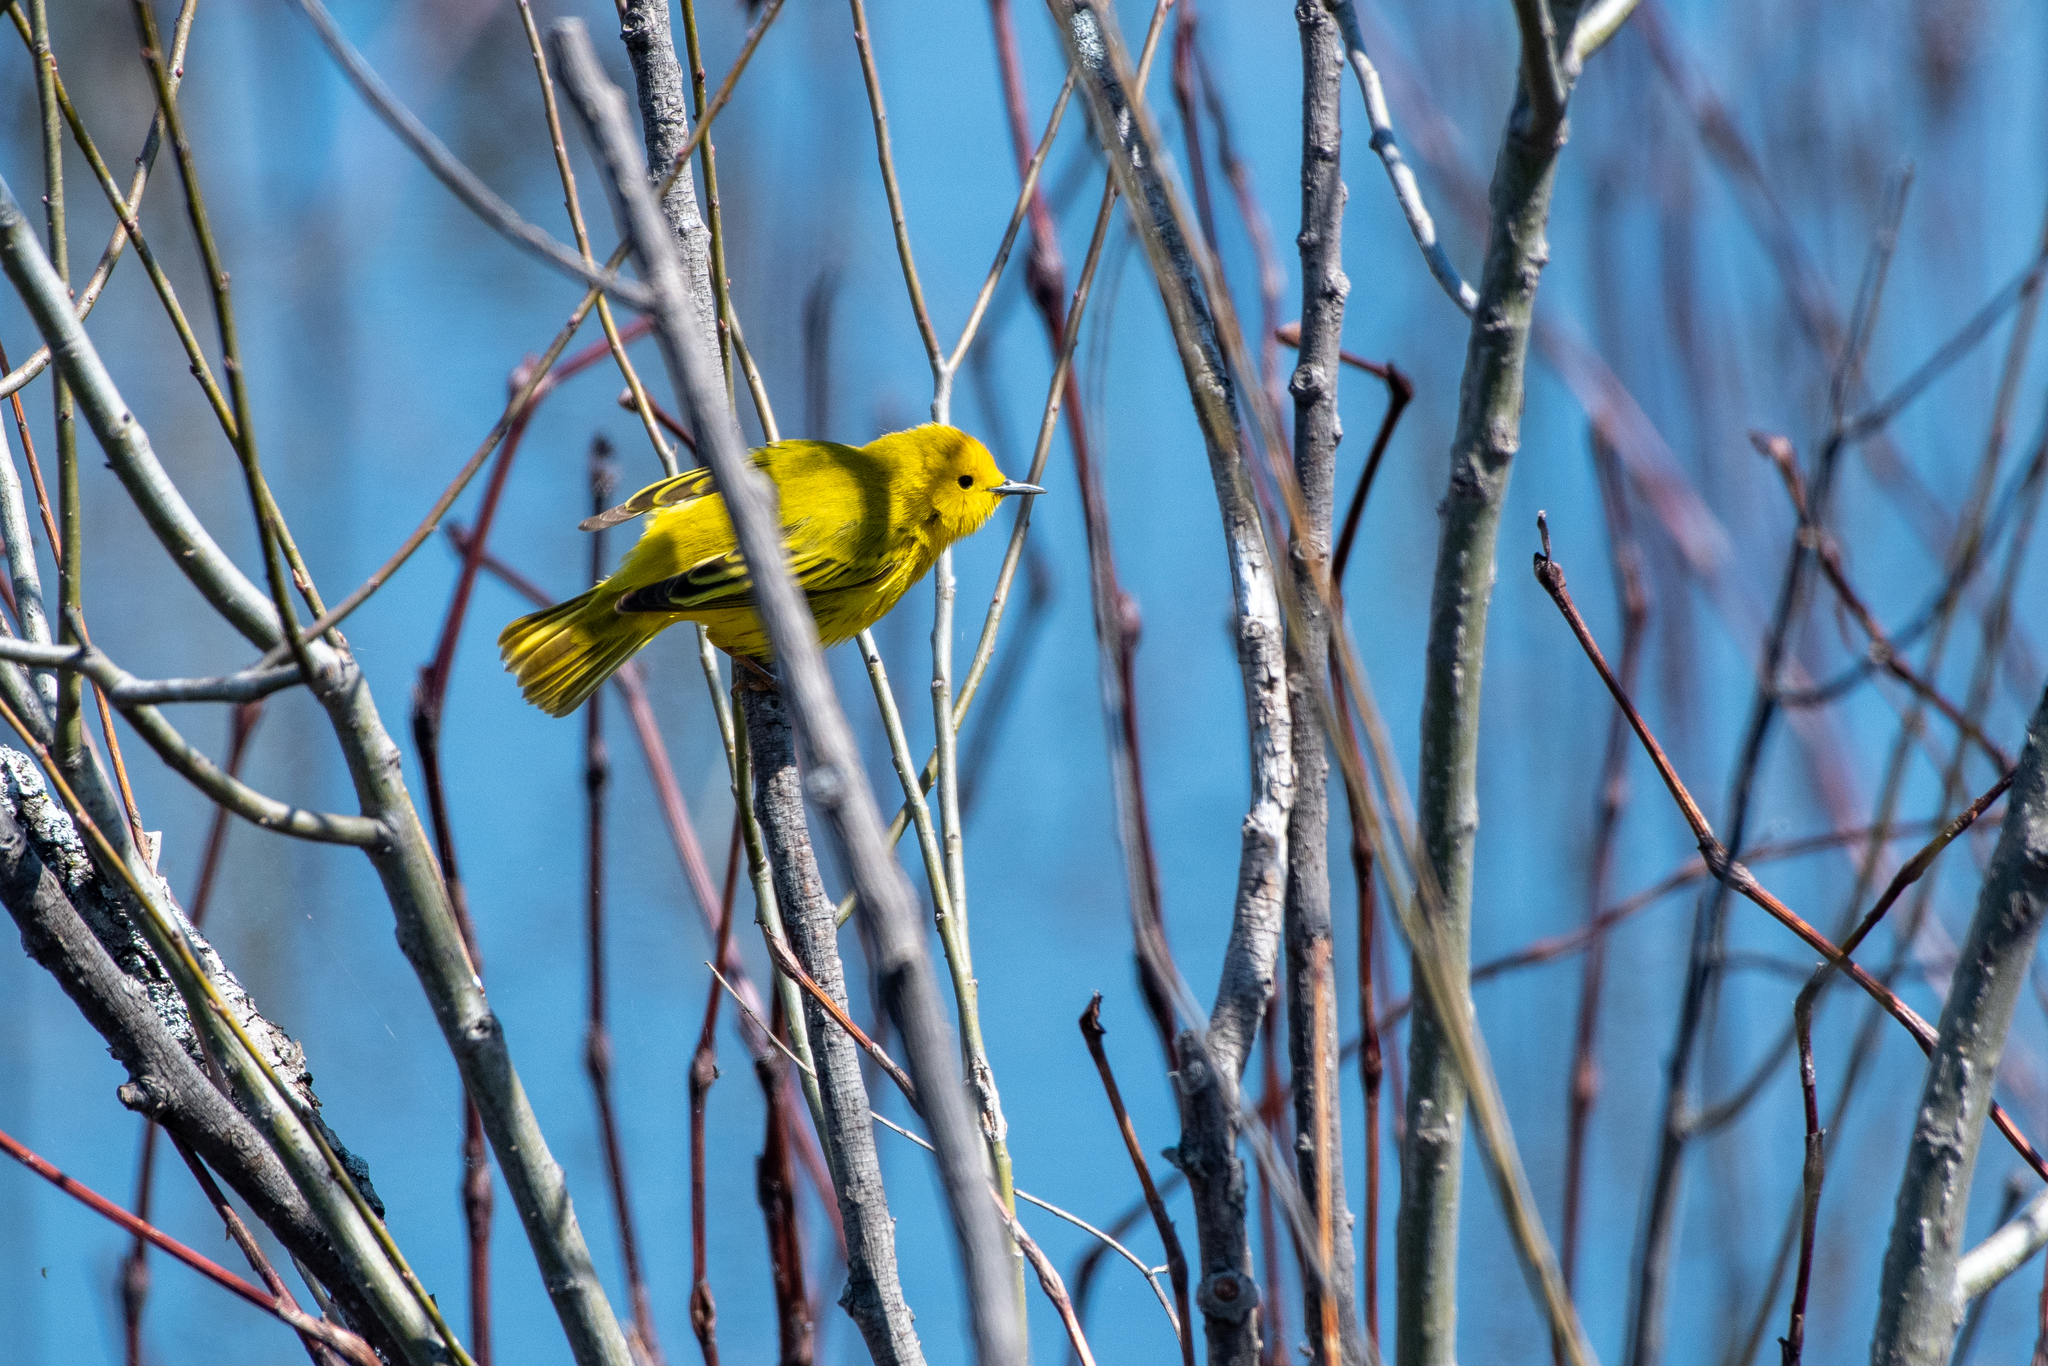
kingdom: Animalia
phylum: Chordata
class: Aves
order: Passeriformes
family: Parulidae
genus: Setophaga
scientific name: Setophaga petechia
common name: Yellow warbler
